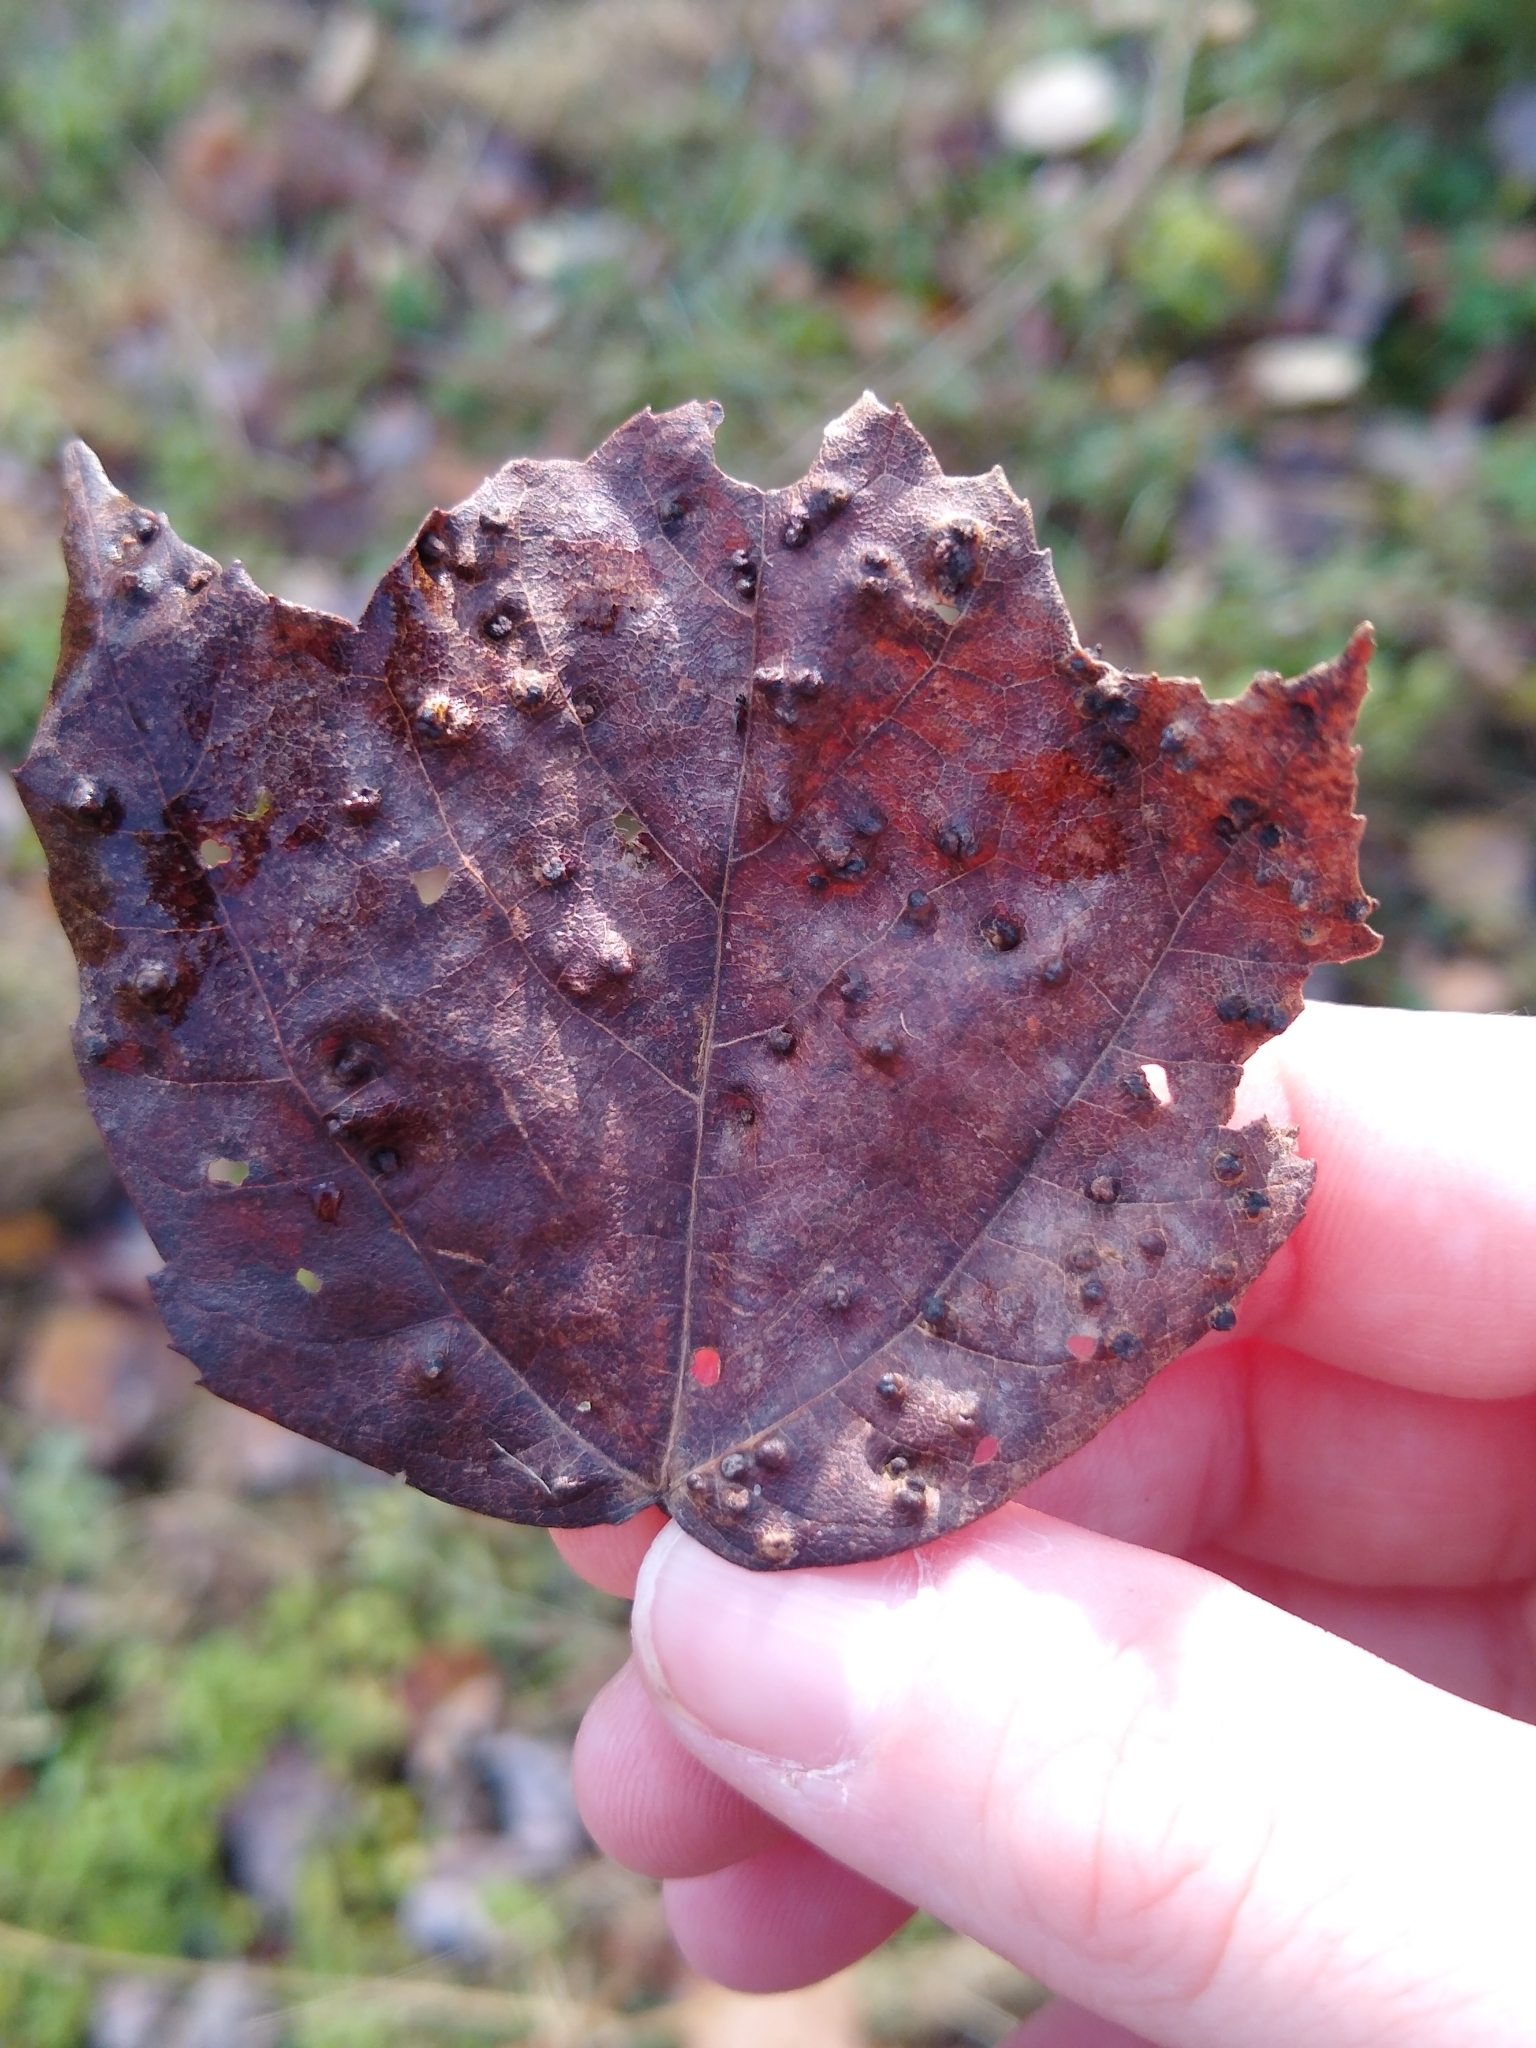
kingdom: Animalia
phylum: Arthropoda
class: Arachnida
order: Trombidiformes
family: Eriophyidae
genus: Vasates
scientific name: Vasates quadripedes
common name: Maple bladder gall mite
